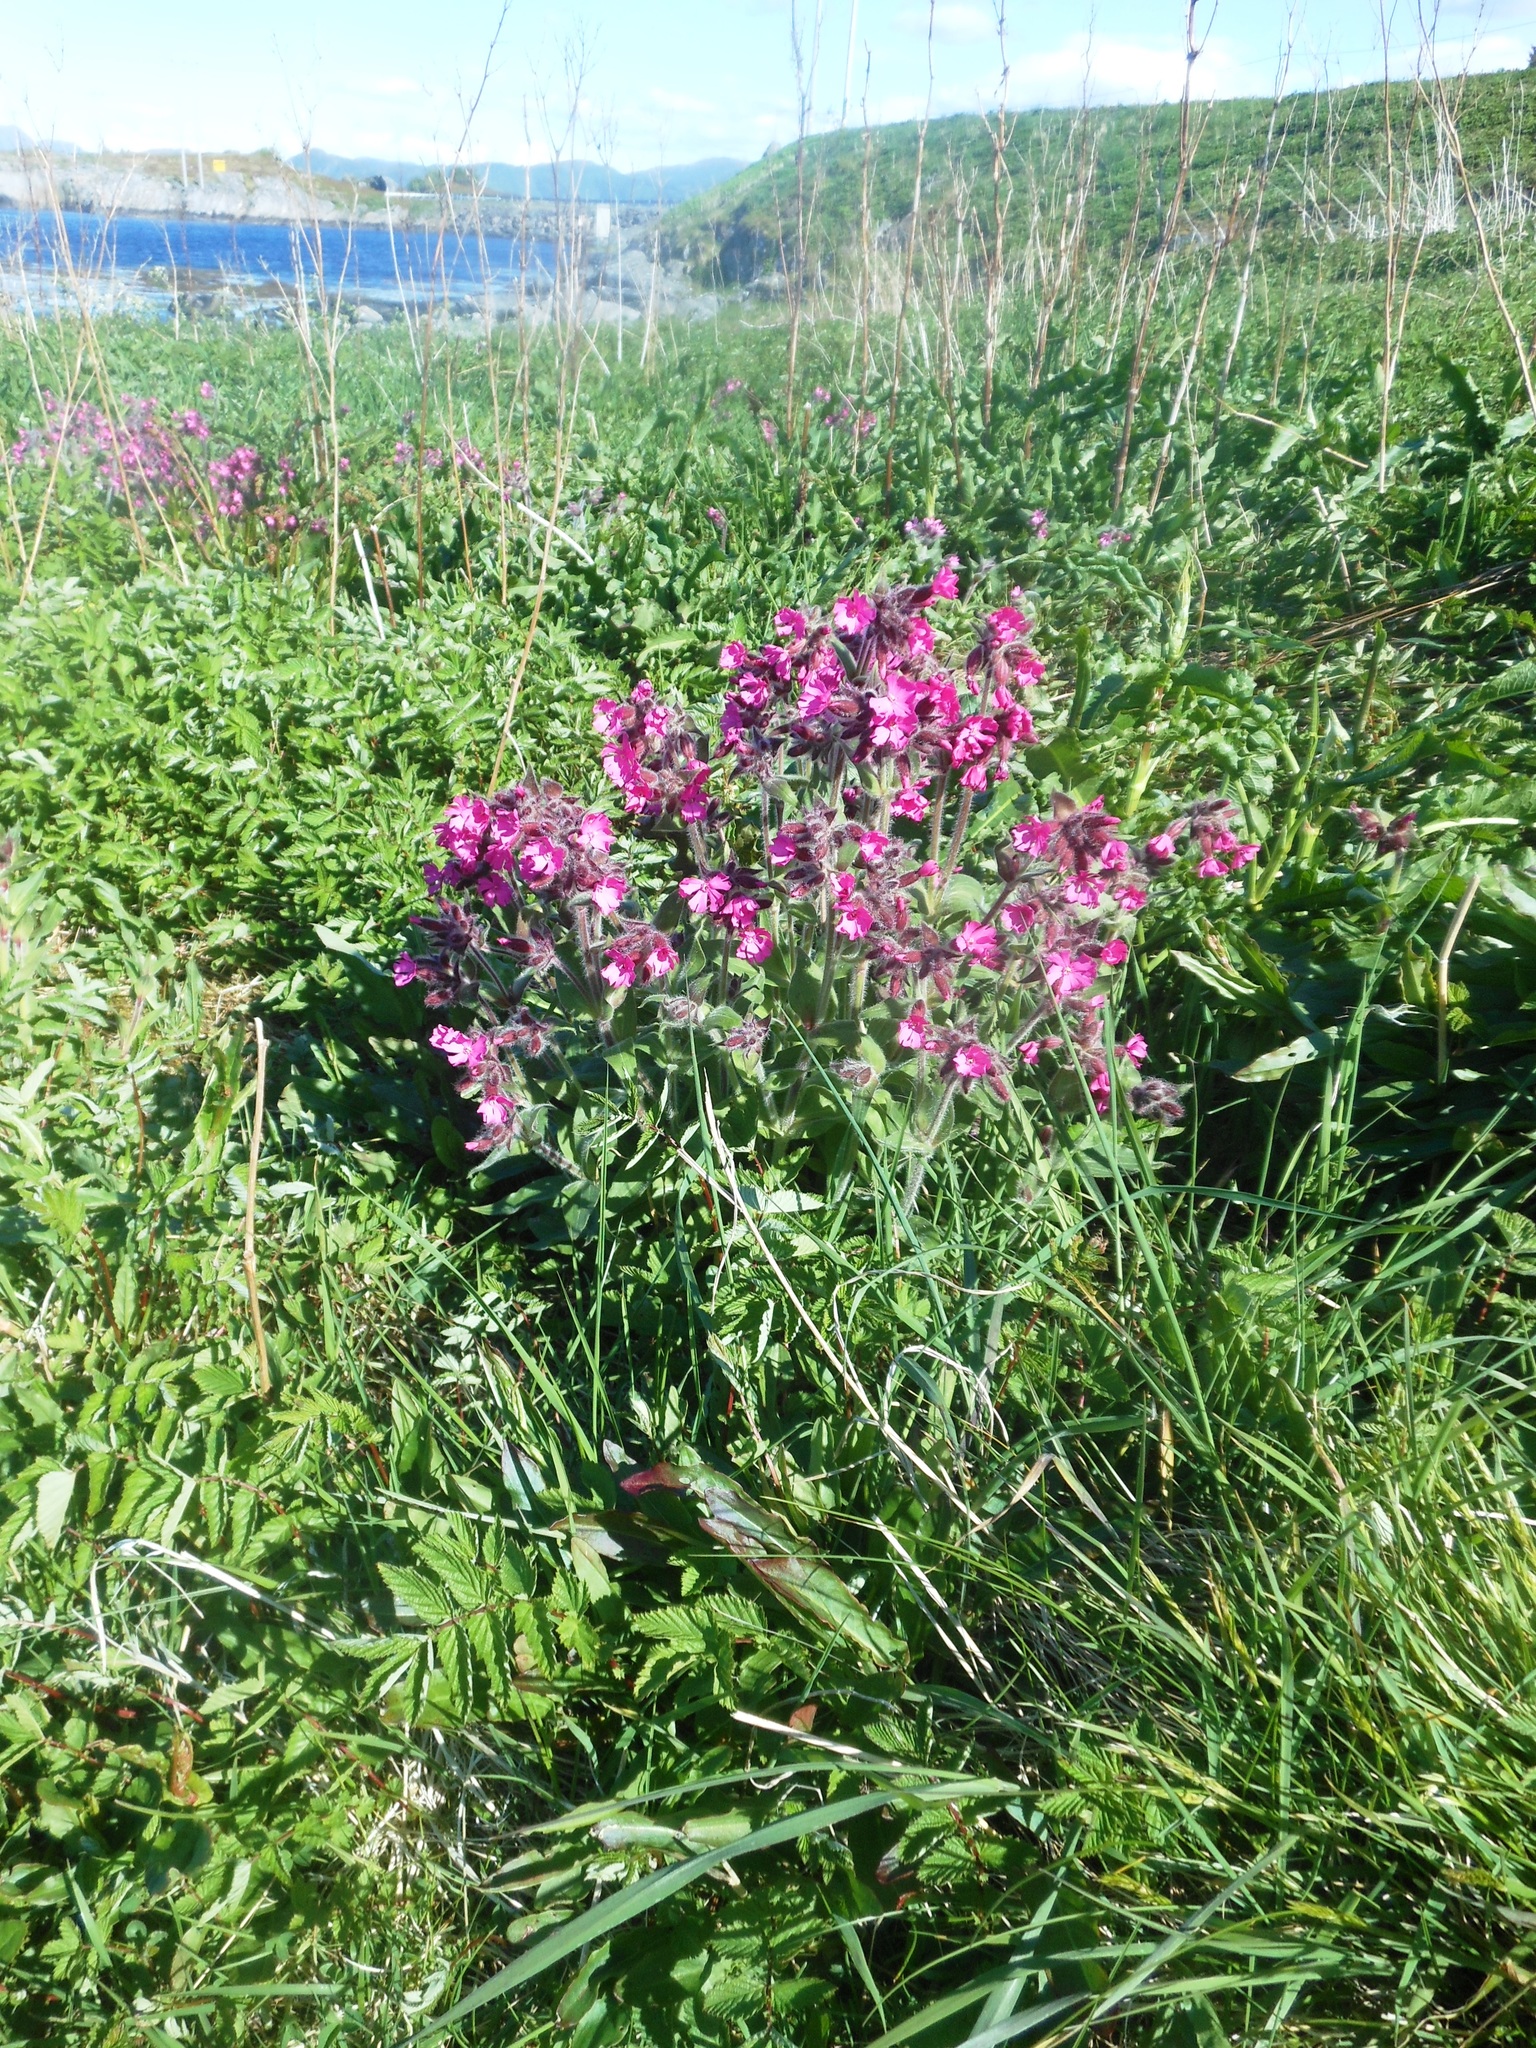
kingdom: Plantae
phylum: Tracheophyta
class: Magnoliopsida
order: Caryophyllales
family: Caryophyllaceae
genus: Silene
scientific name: Silene dioica
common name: Red campion
